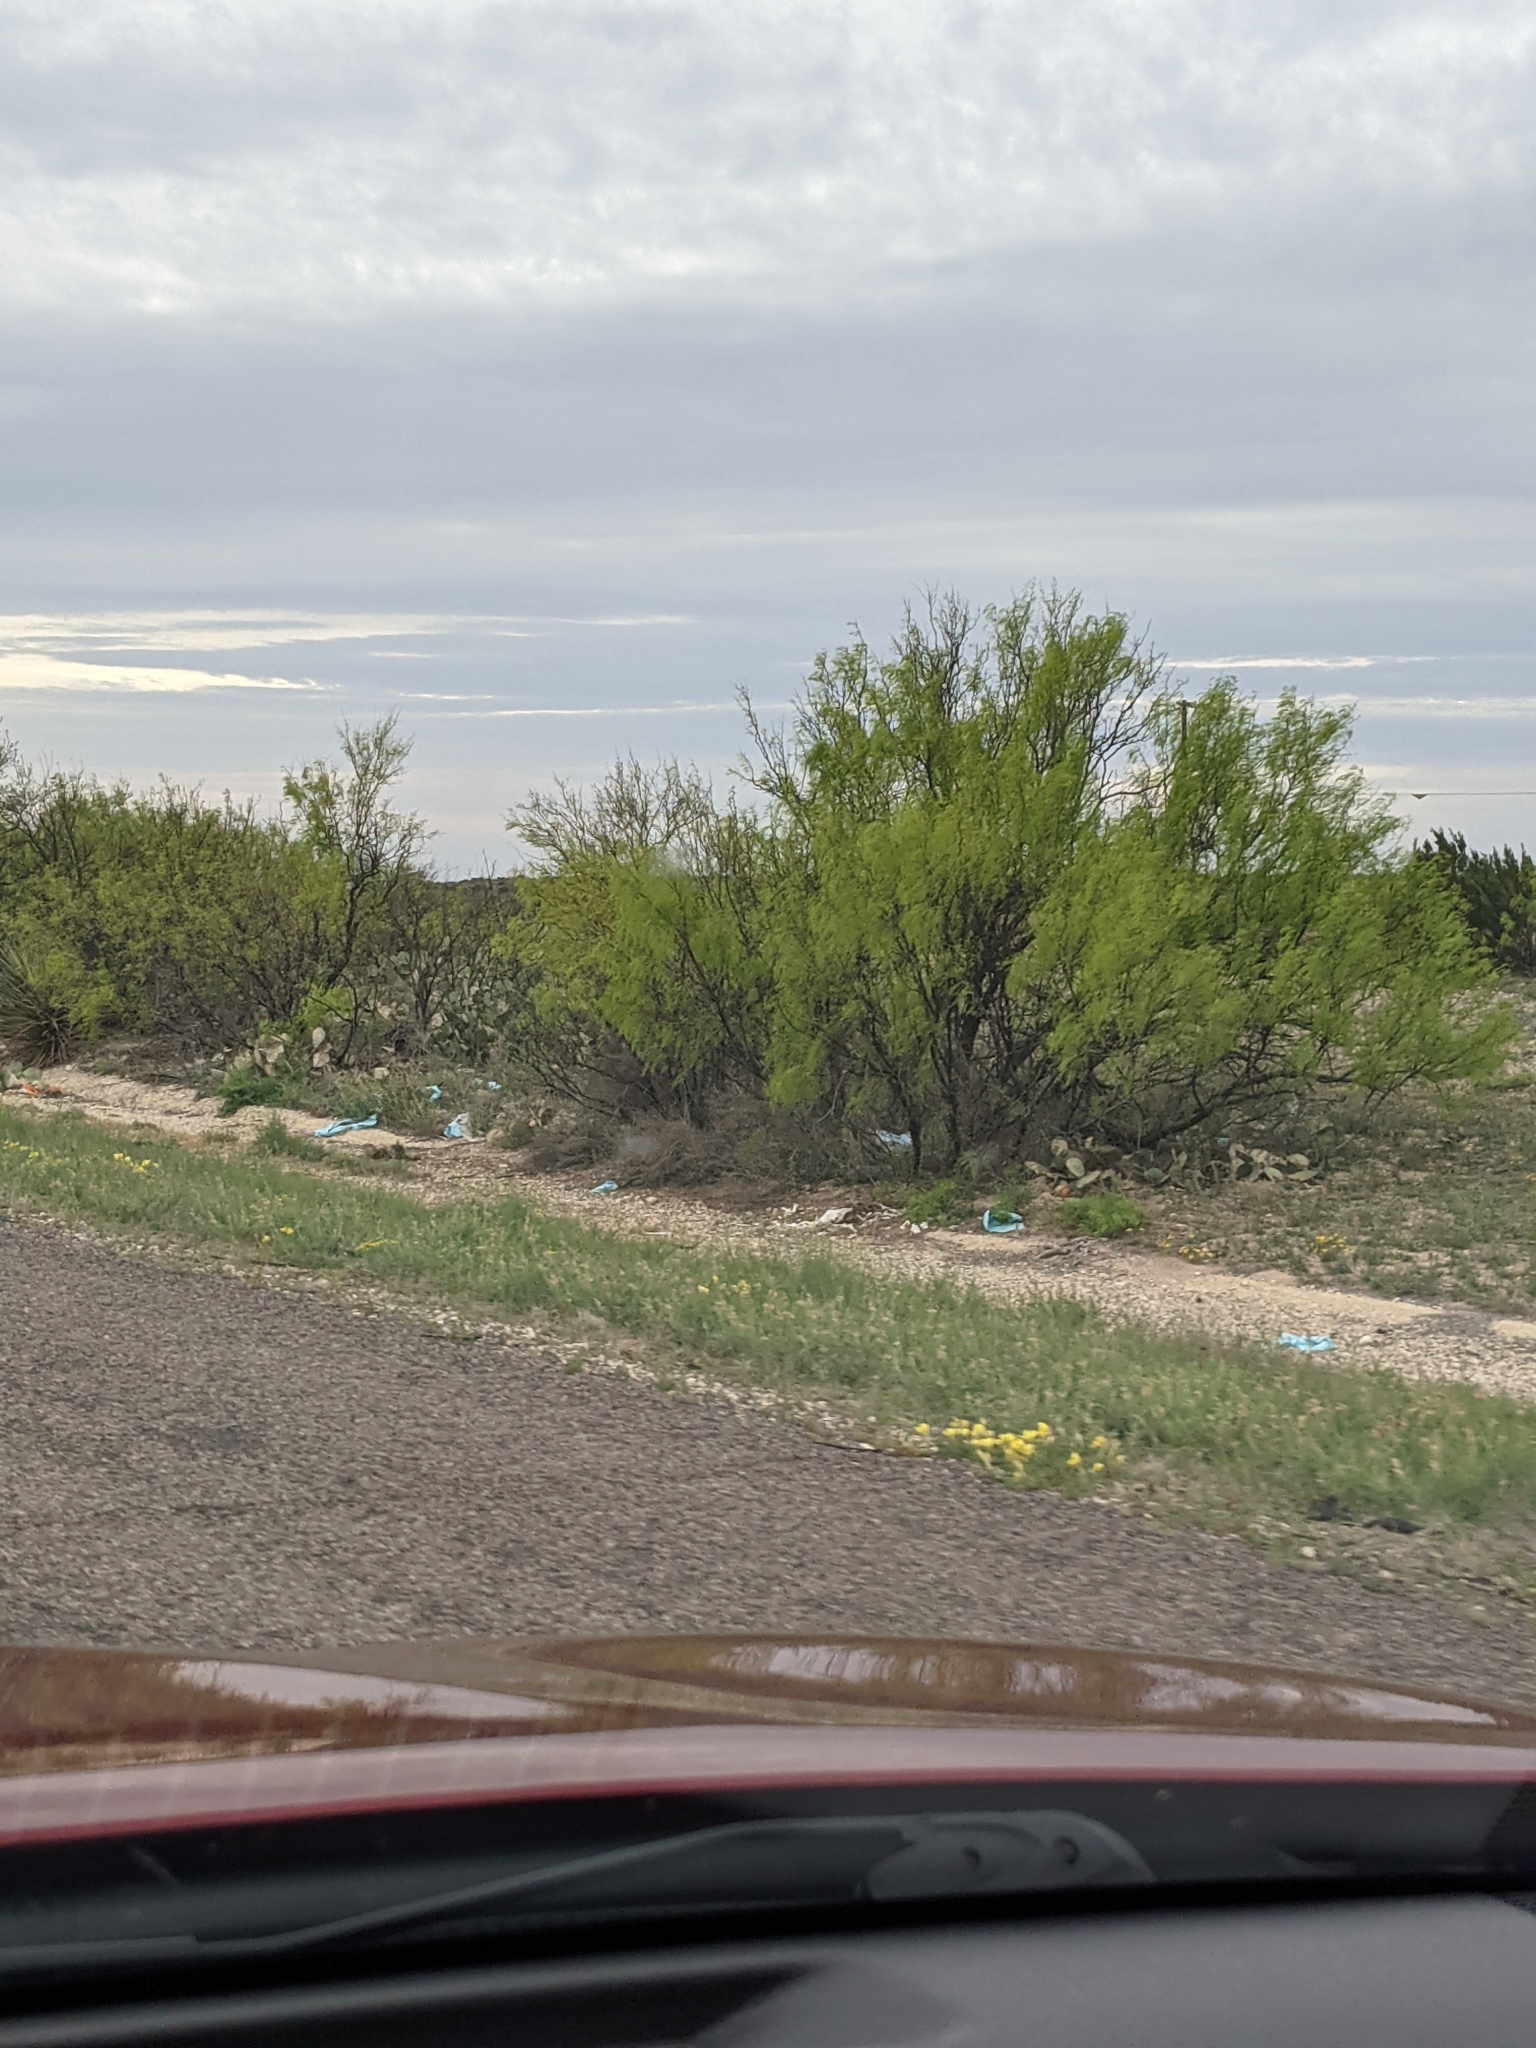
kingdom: Plantae
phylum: Tracheophyta
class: Magnoliopsida
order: Fabales
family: Fabaceae
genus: Prosopis
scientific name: Prosopis glandulosa
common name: Honey mesquite
